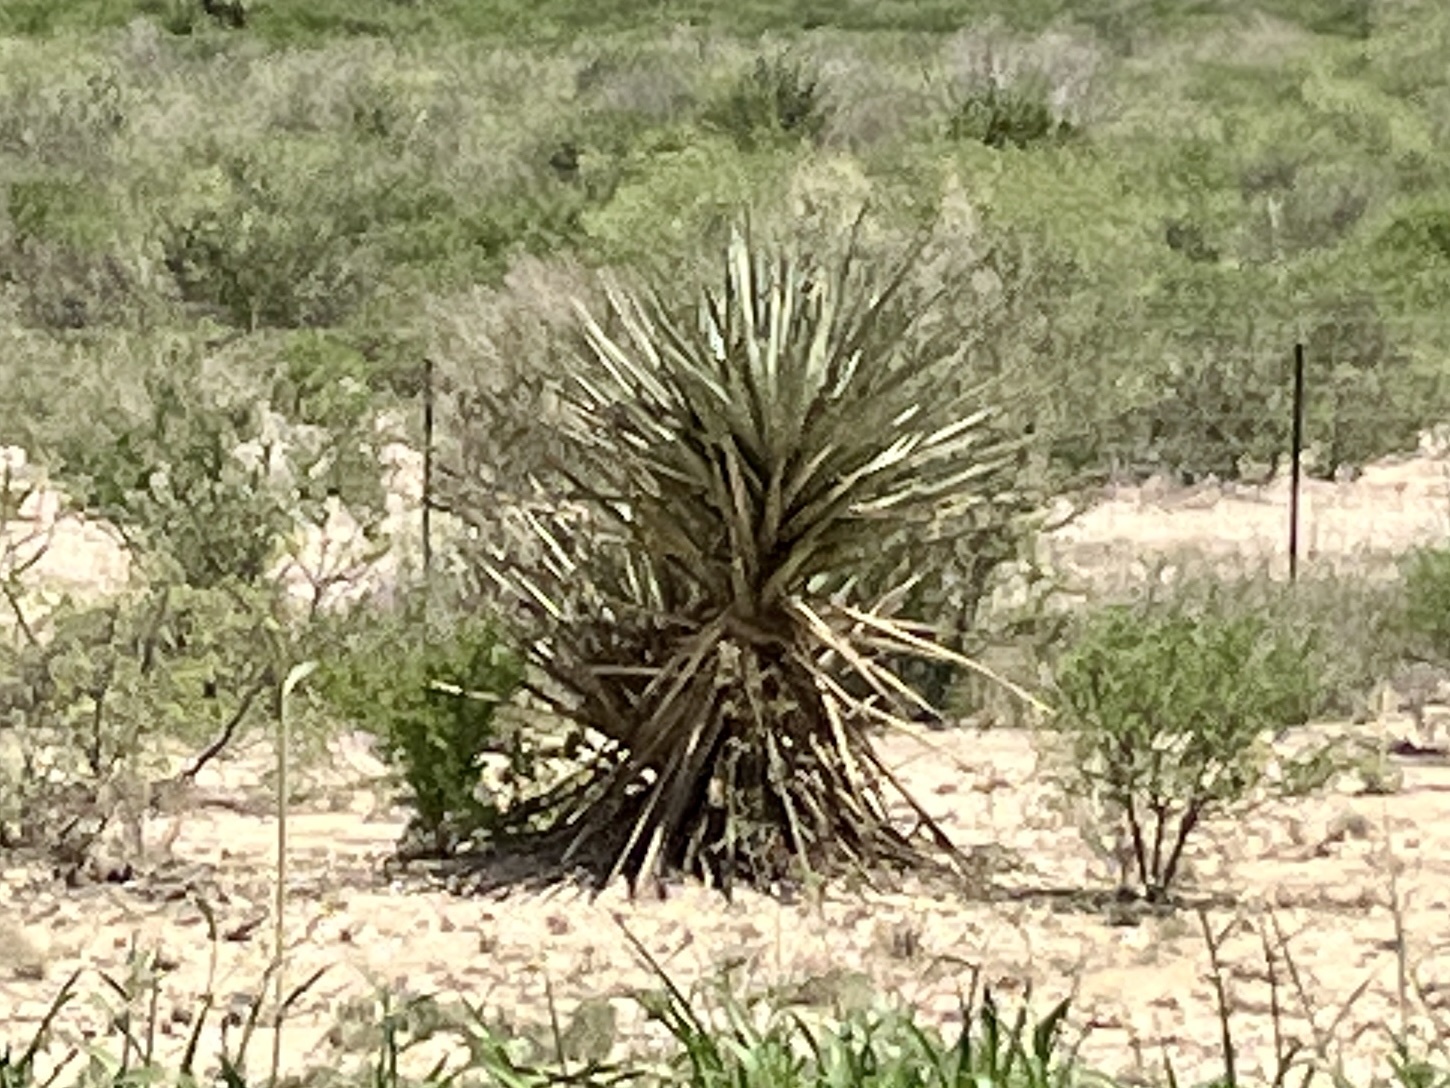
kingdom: Plantae
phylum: Tracheophyta
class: Liliopsida
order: Asparagales
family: Asparagaceae
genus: Yucca
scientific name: Yucca treculiana
